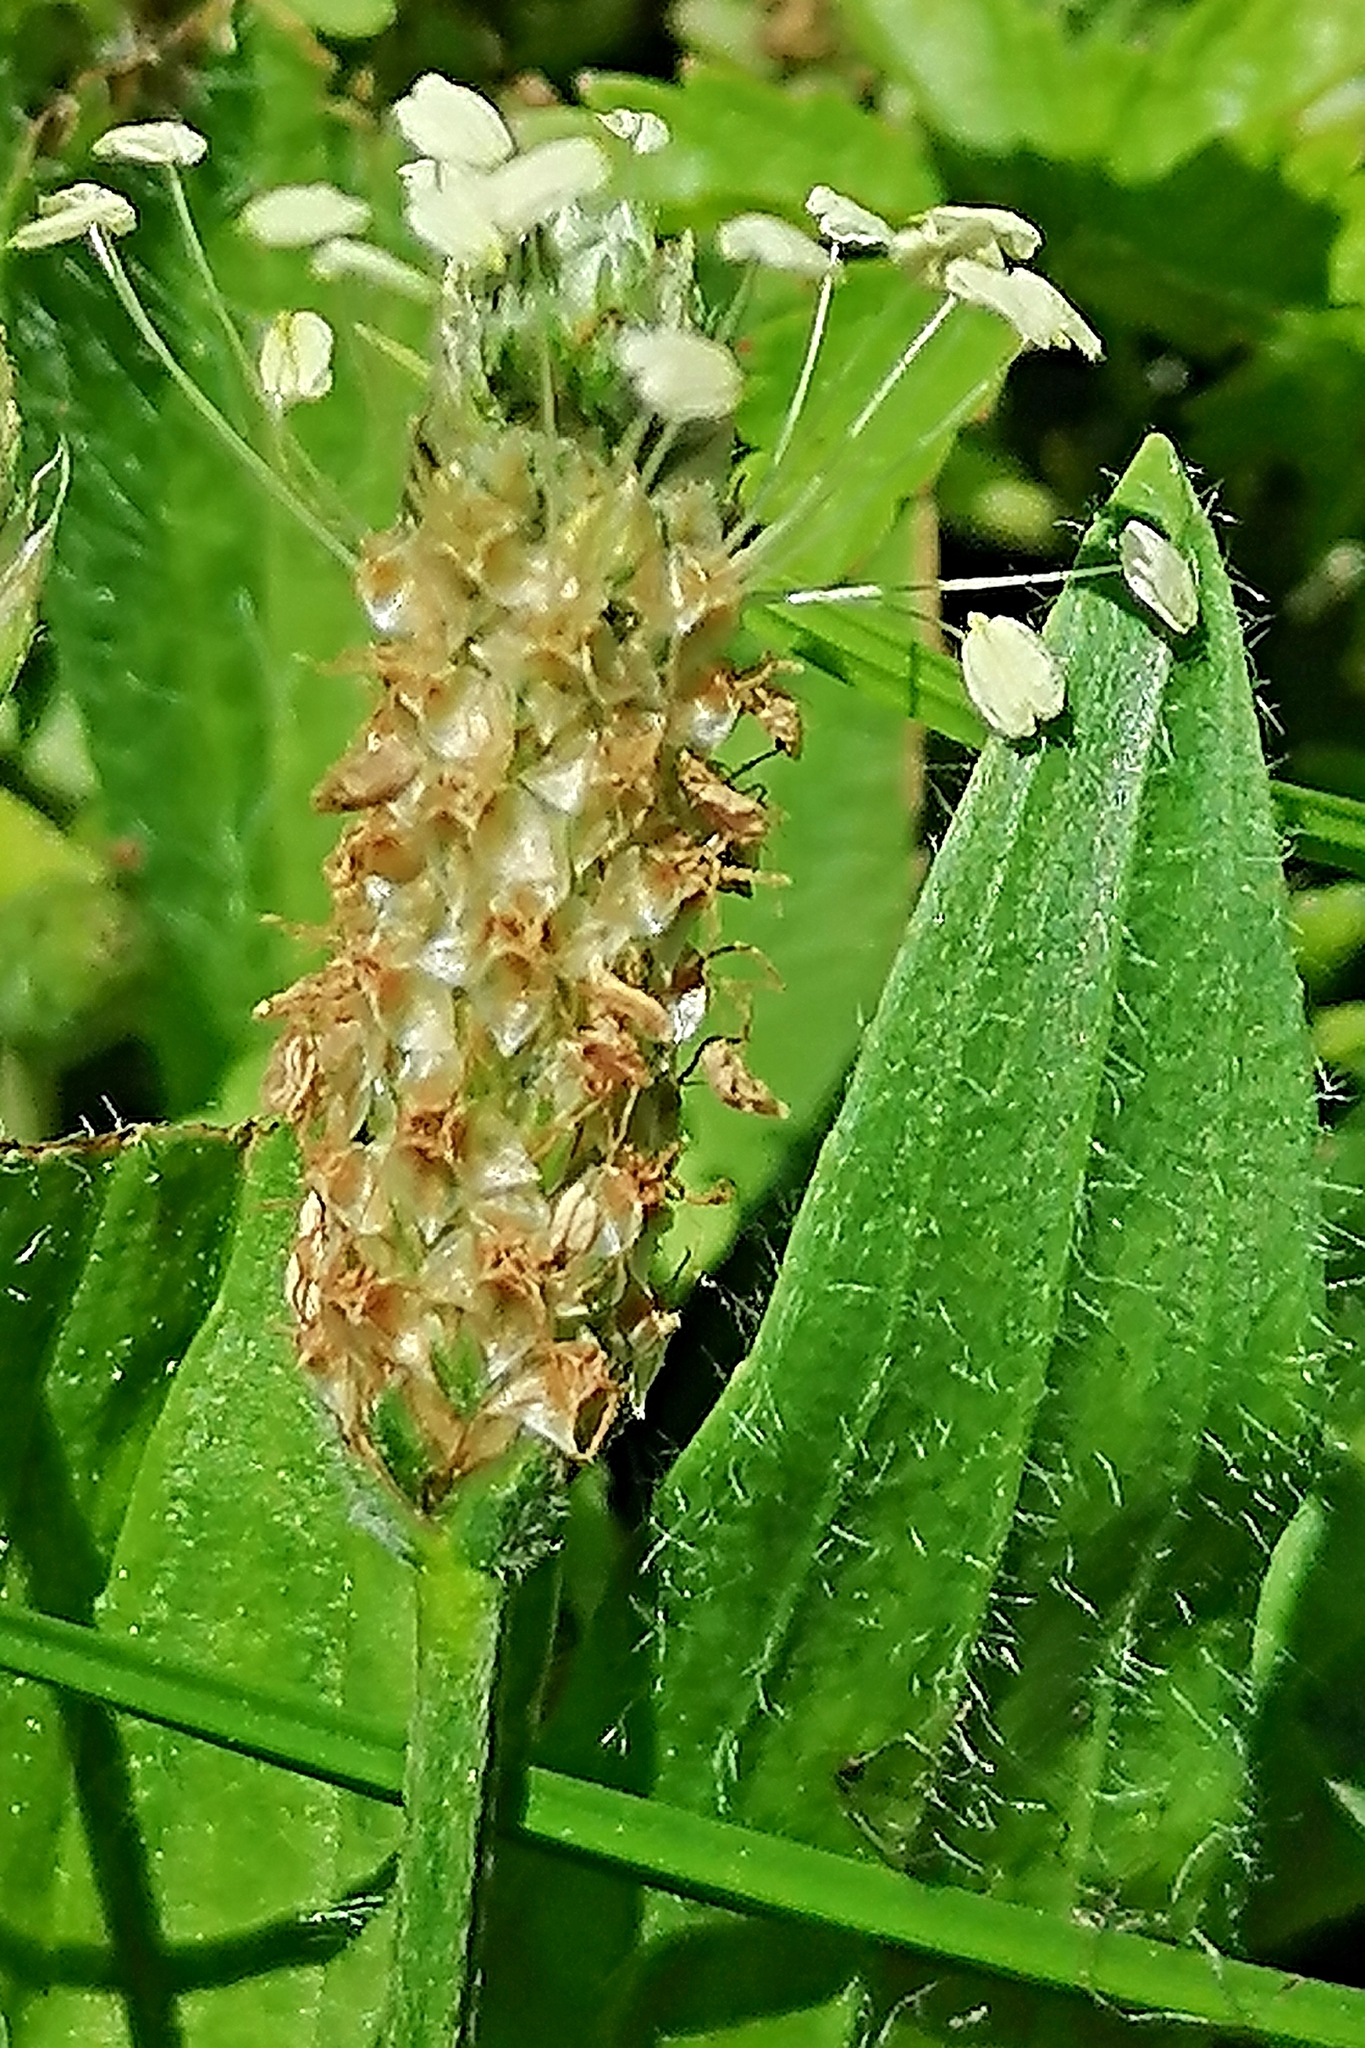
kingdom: Plantae
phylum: Tracheophyta
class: Magnoliopsida
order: Lamiales
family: Plantaginaceae
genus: Plantago
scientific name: Plantago lanceolata
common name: Ribwort plantain
